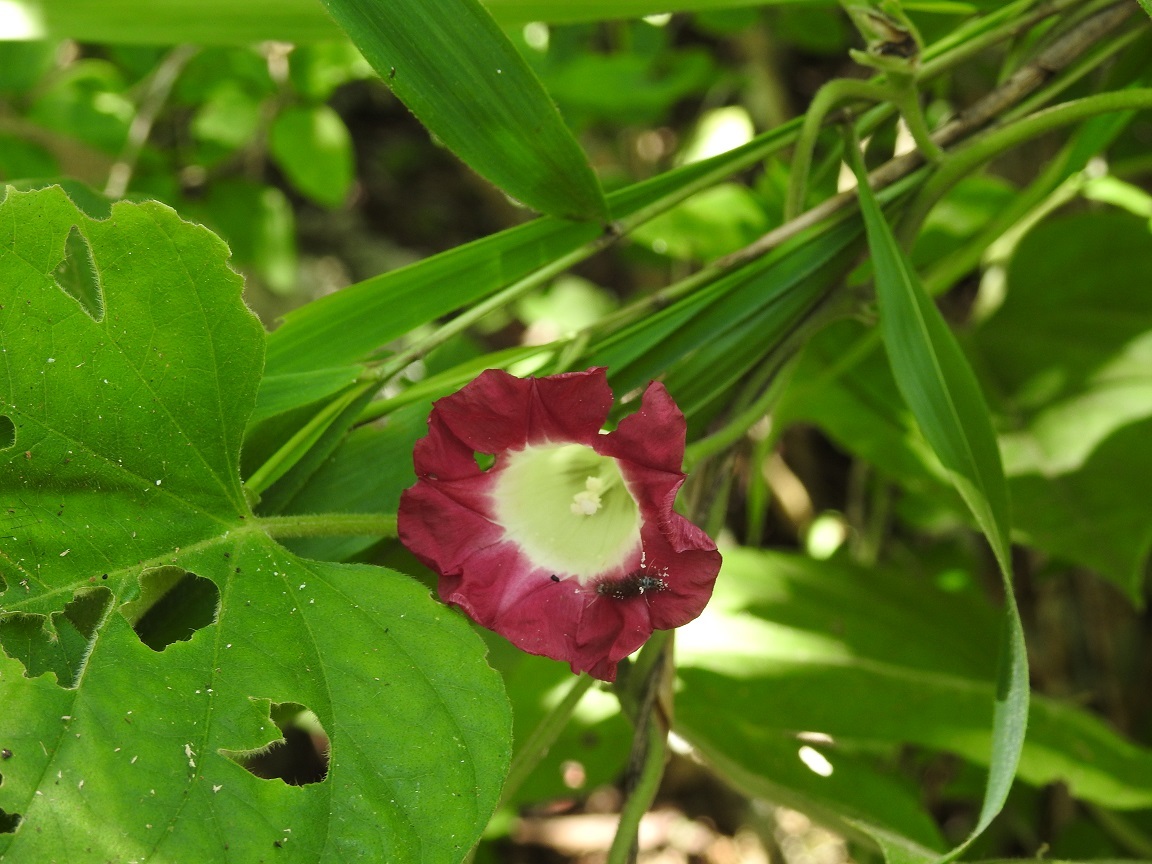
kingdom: Plantae
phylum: Tracheophyta
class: Magnoliopsida
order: Solanales
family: Convolvulaceae
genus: Ipomoea
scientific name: Ipomoea peteri
